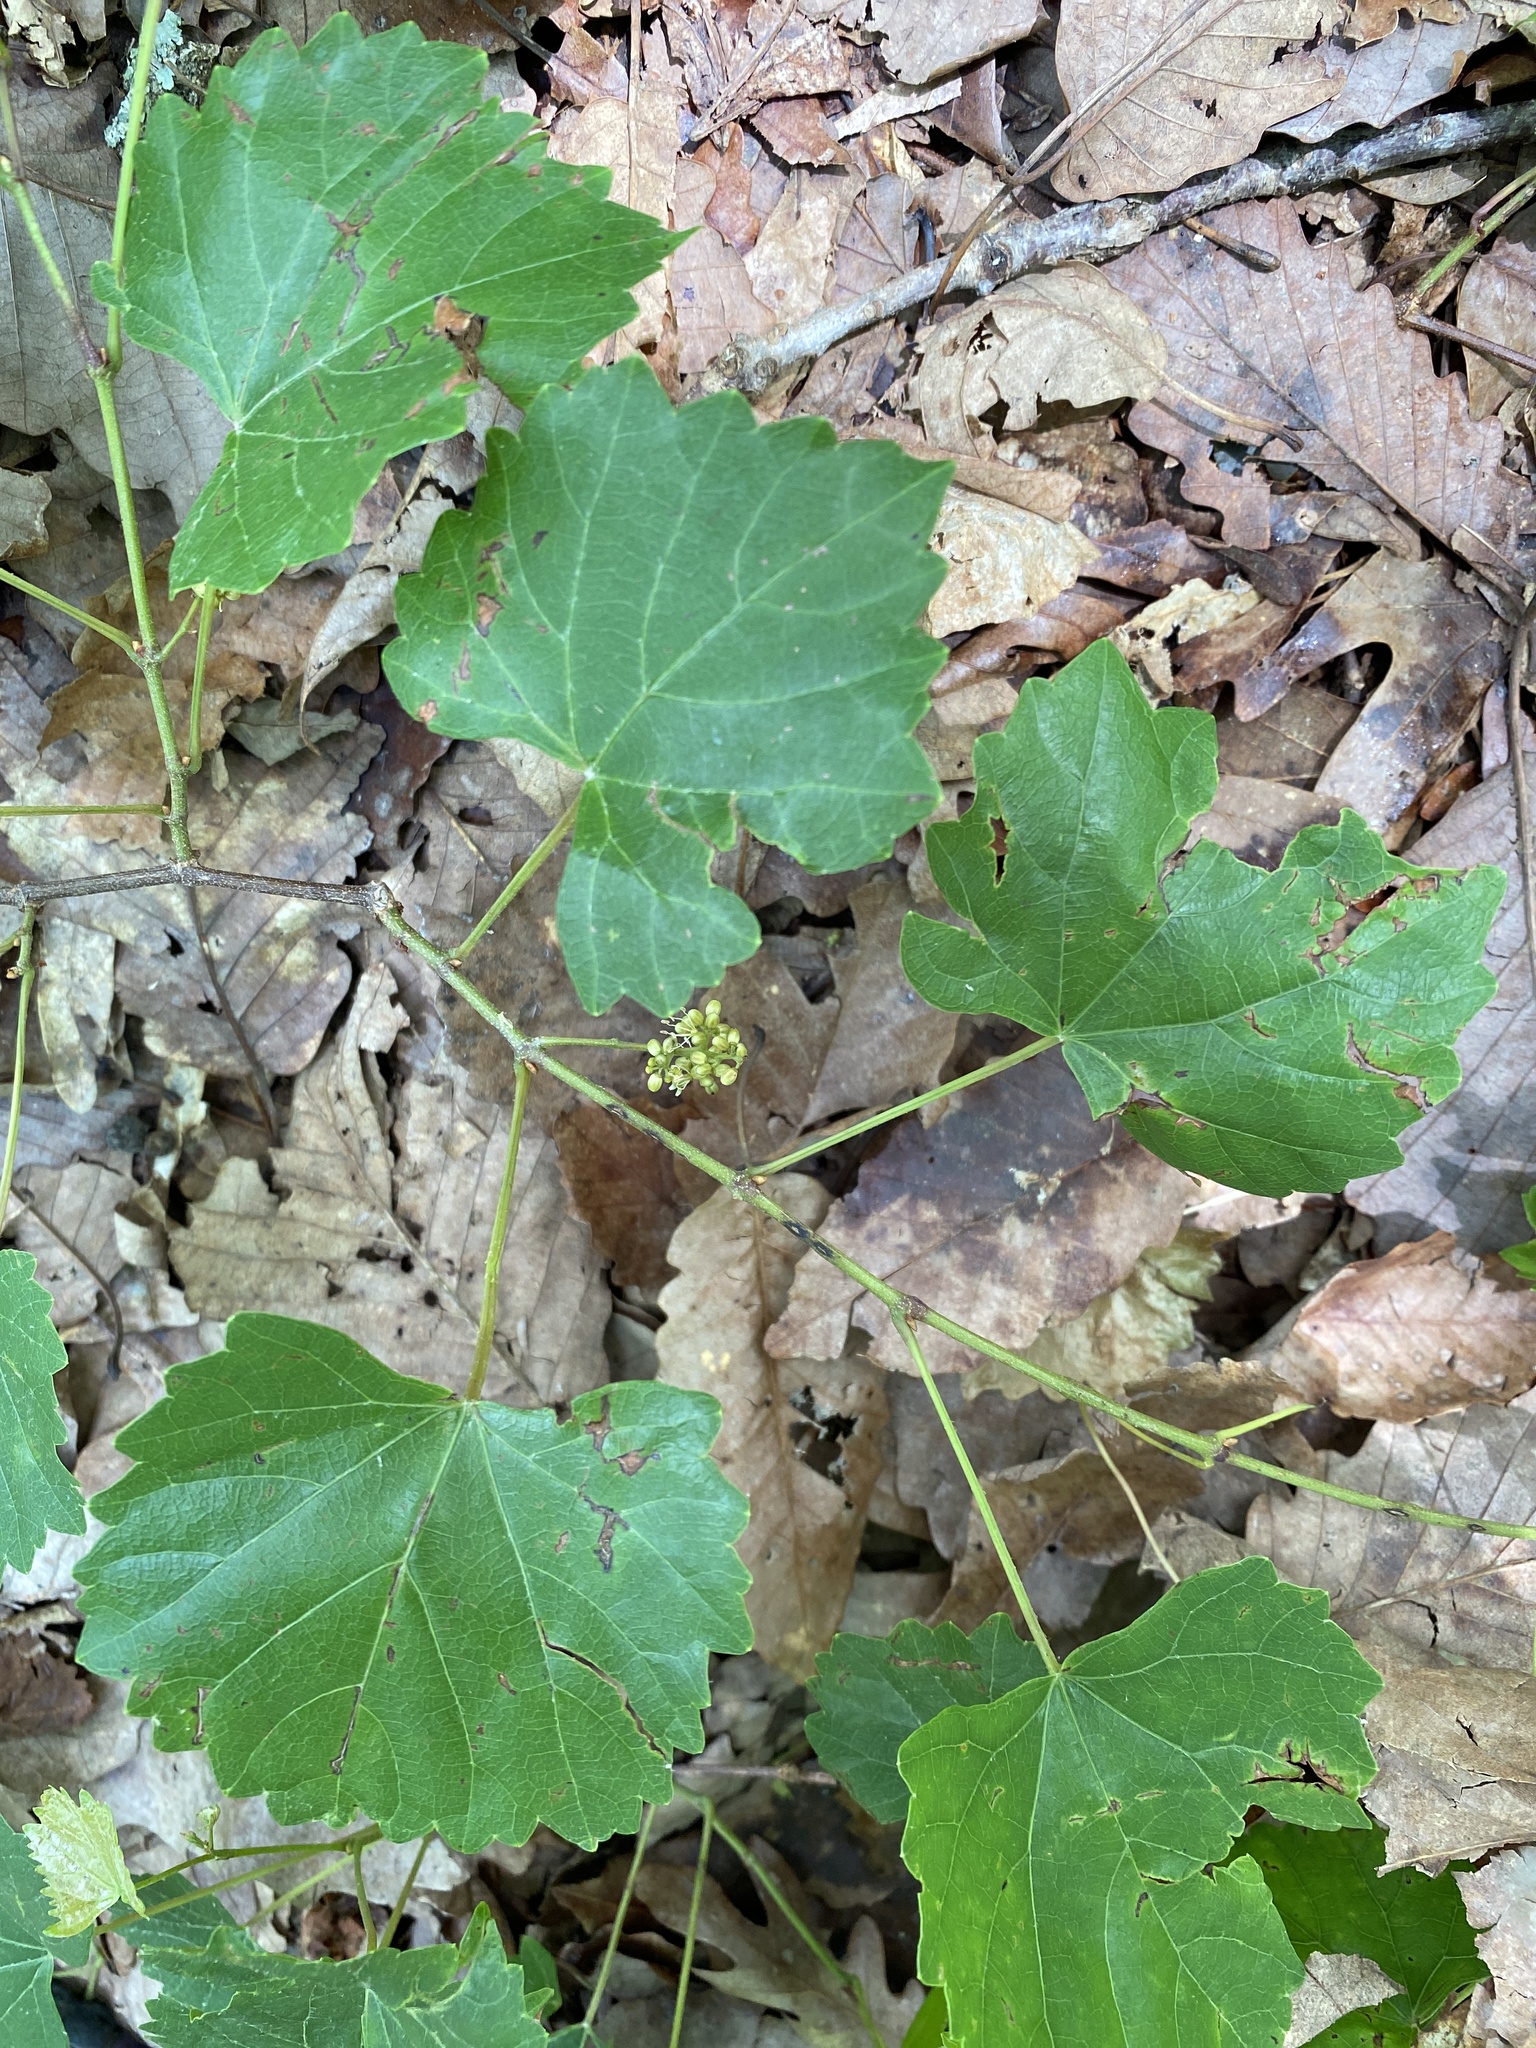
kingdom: Plantae
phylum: Tracheophyta
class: Magnoliopsida
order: Vitales
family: Vitaceae
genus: Vitis
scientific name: Vitis rotundifolia
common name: Muscadine grape
